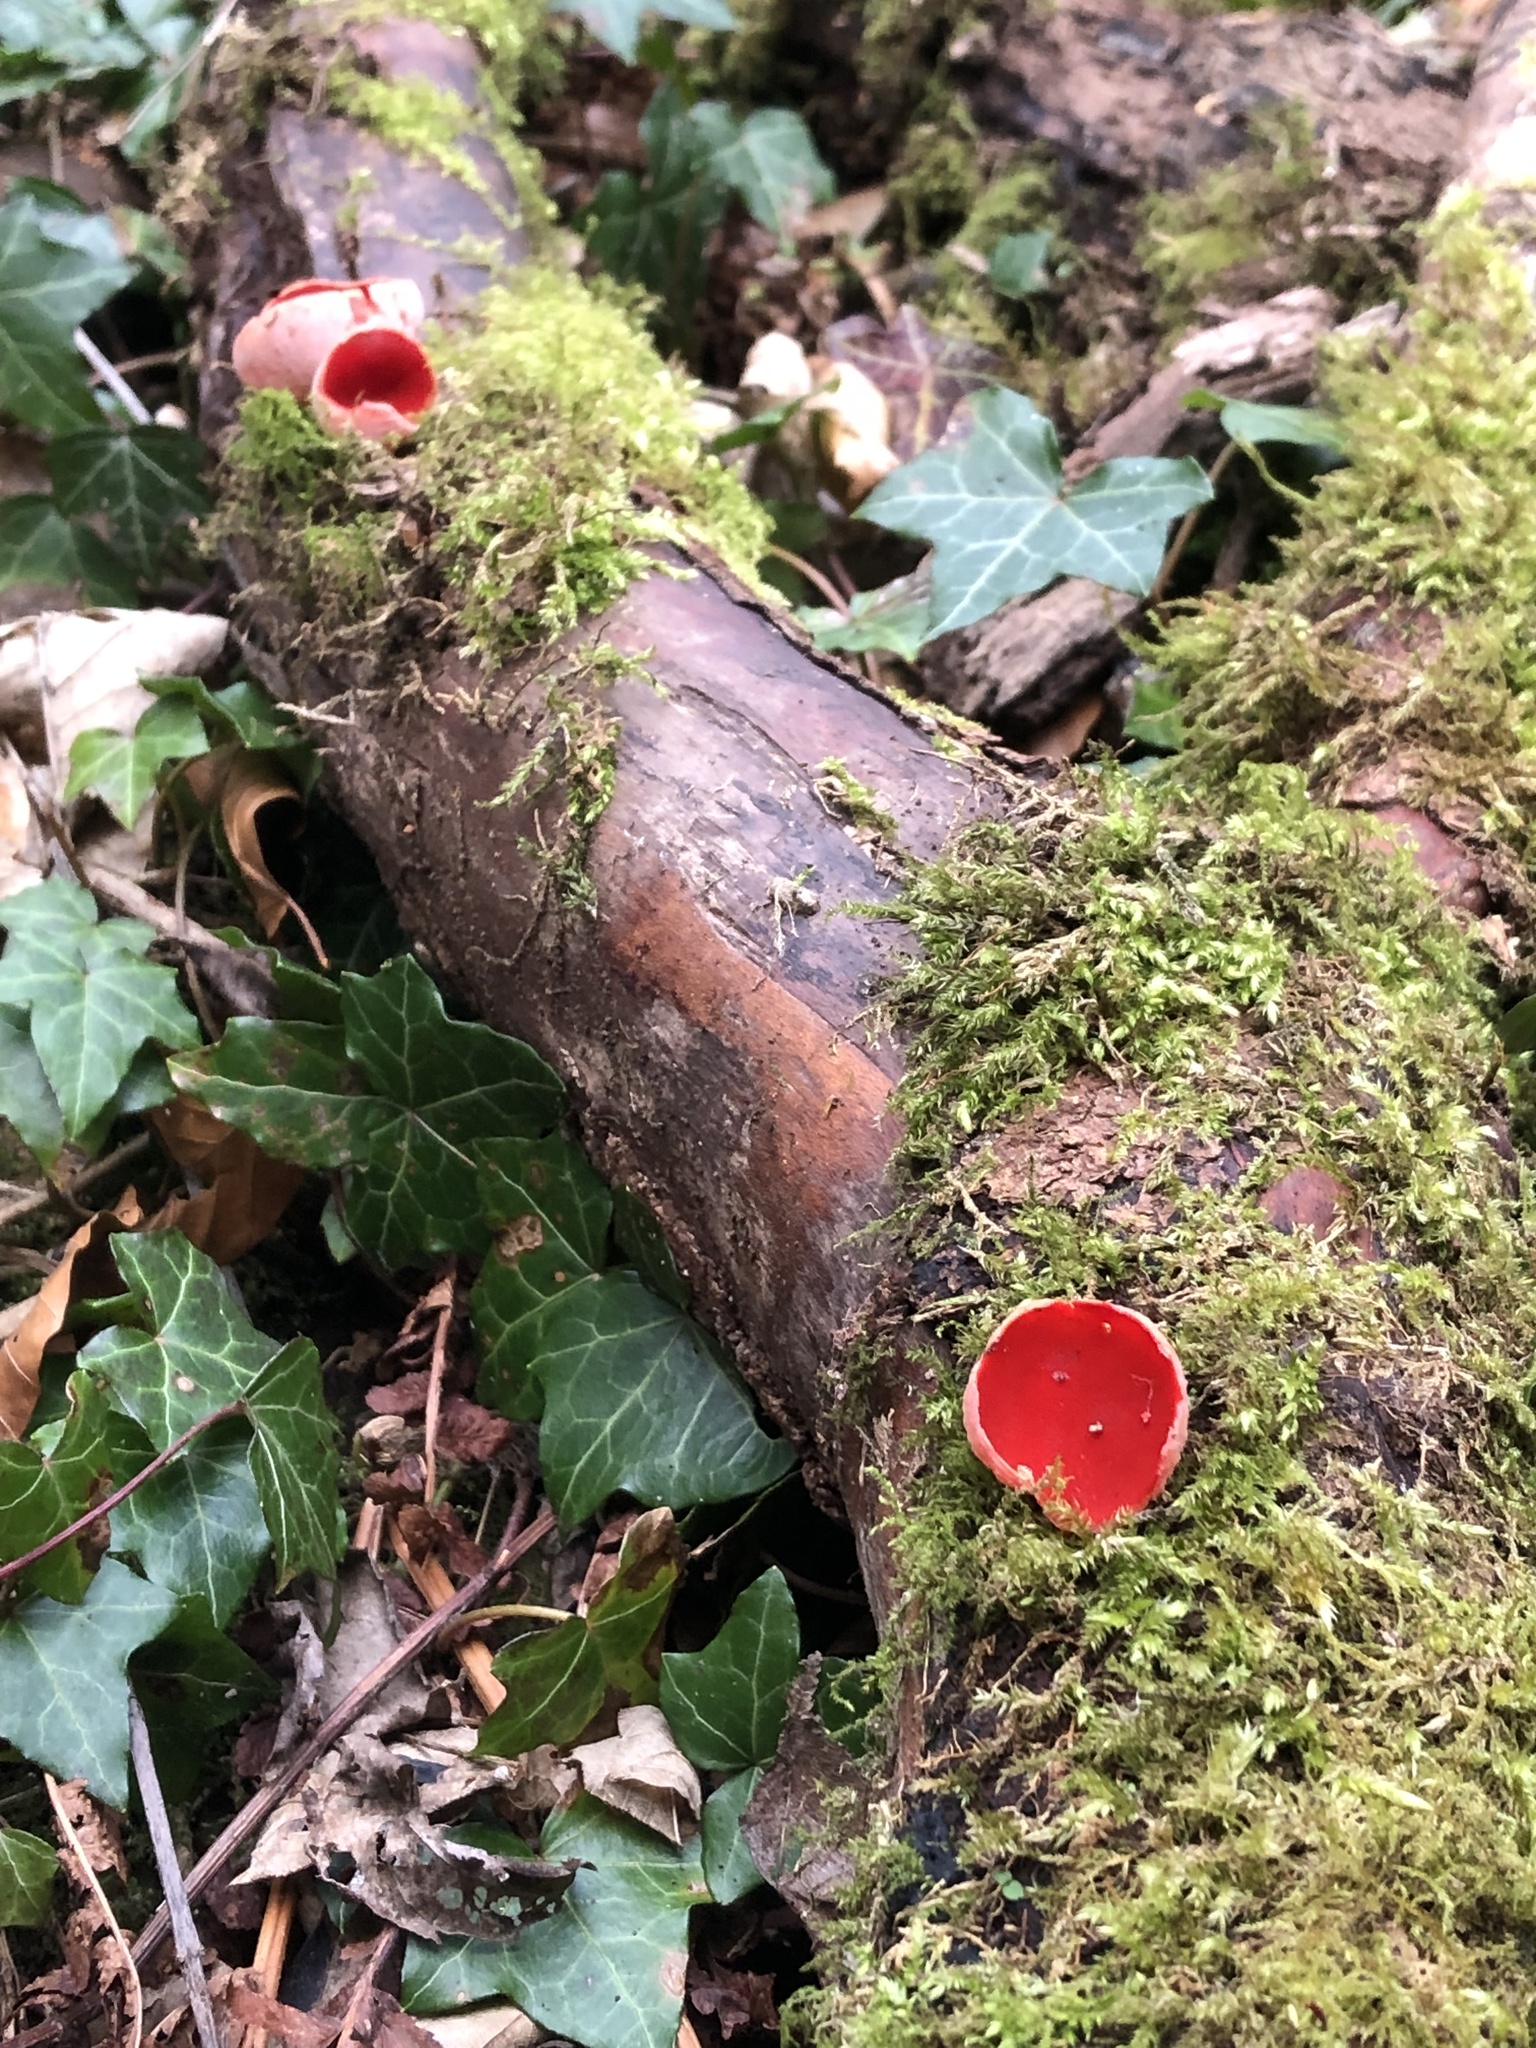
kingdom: Fungi
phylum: Ascomycota
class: Pezizomycetes
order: Pezizales
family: Sarcoscyphaceae
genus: Sarcoscypha
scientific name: Sarcoscypha
